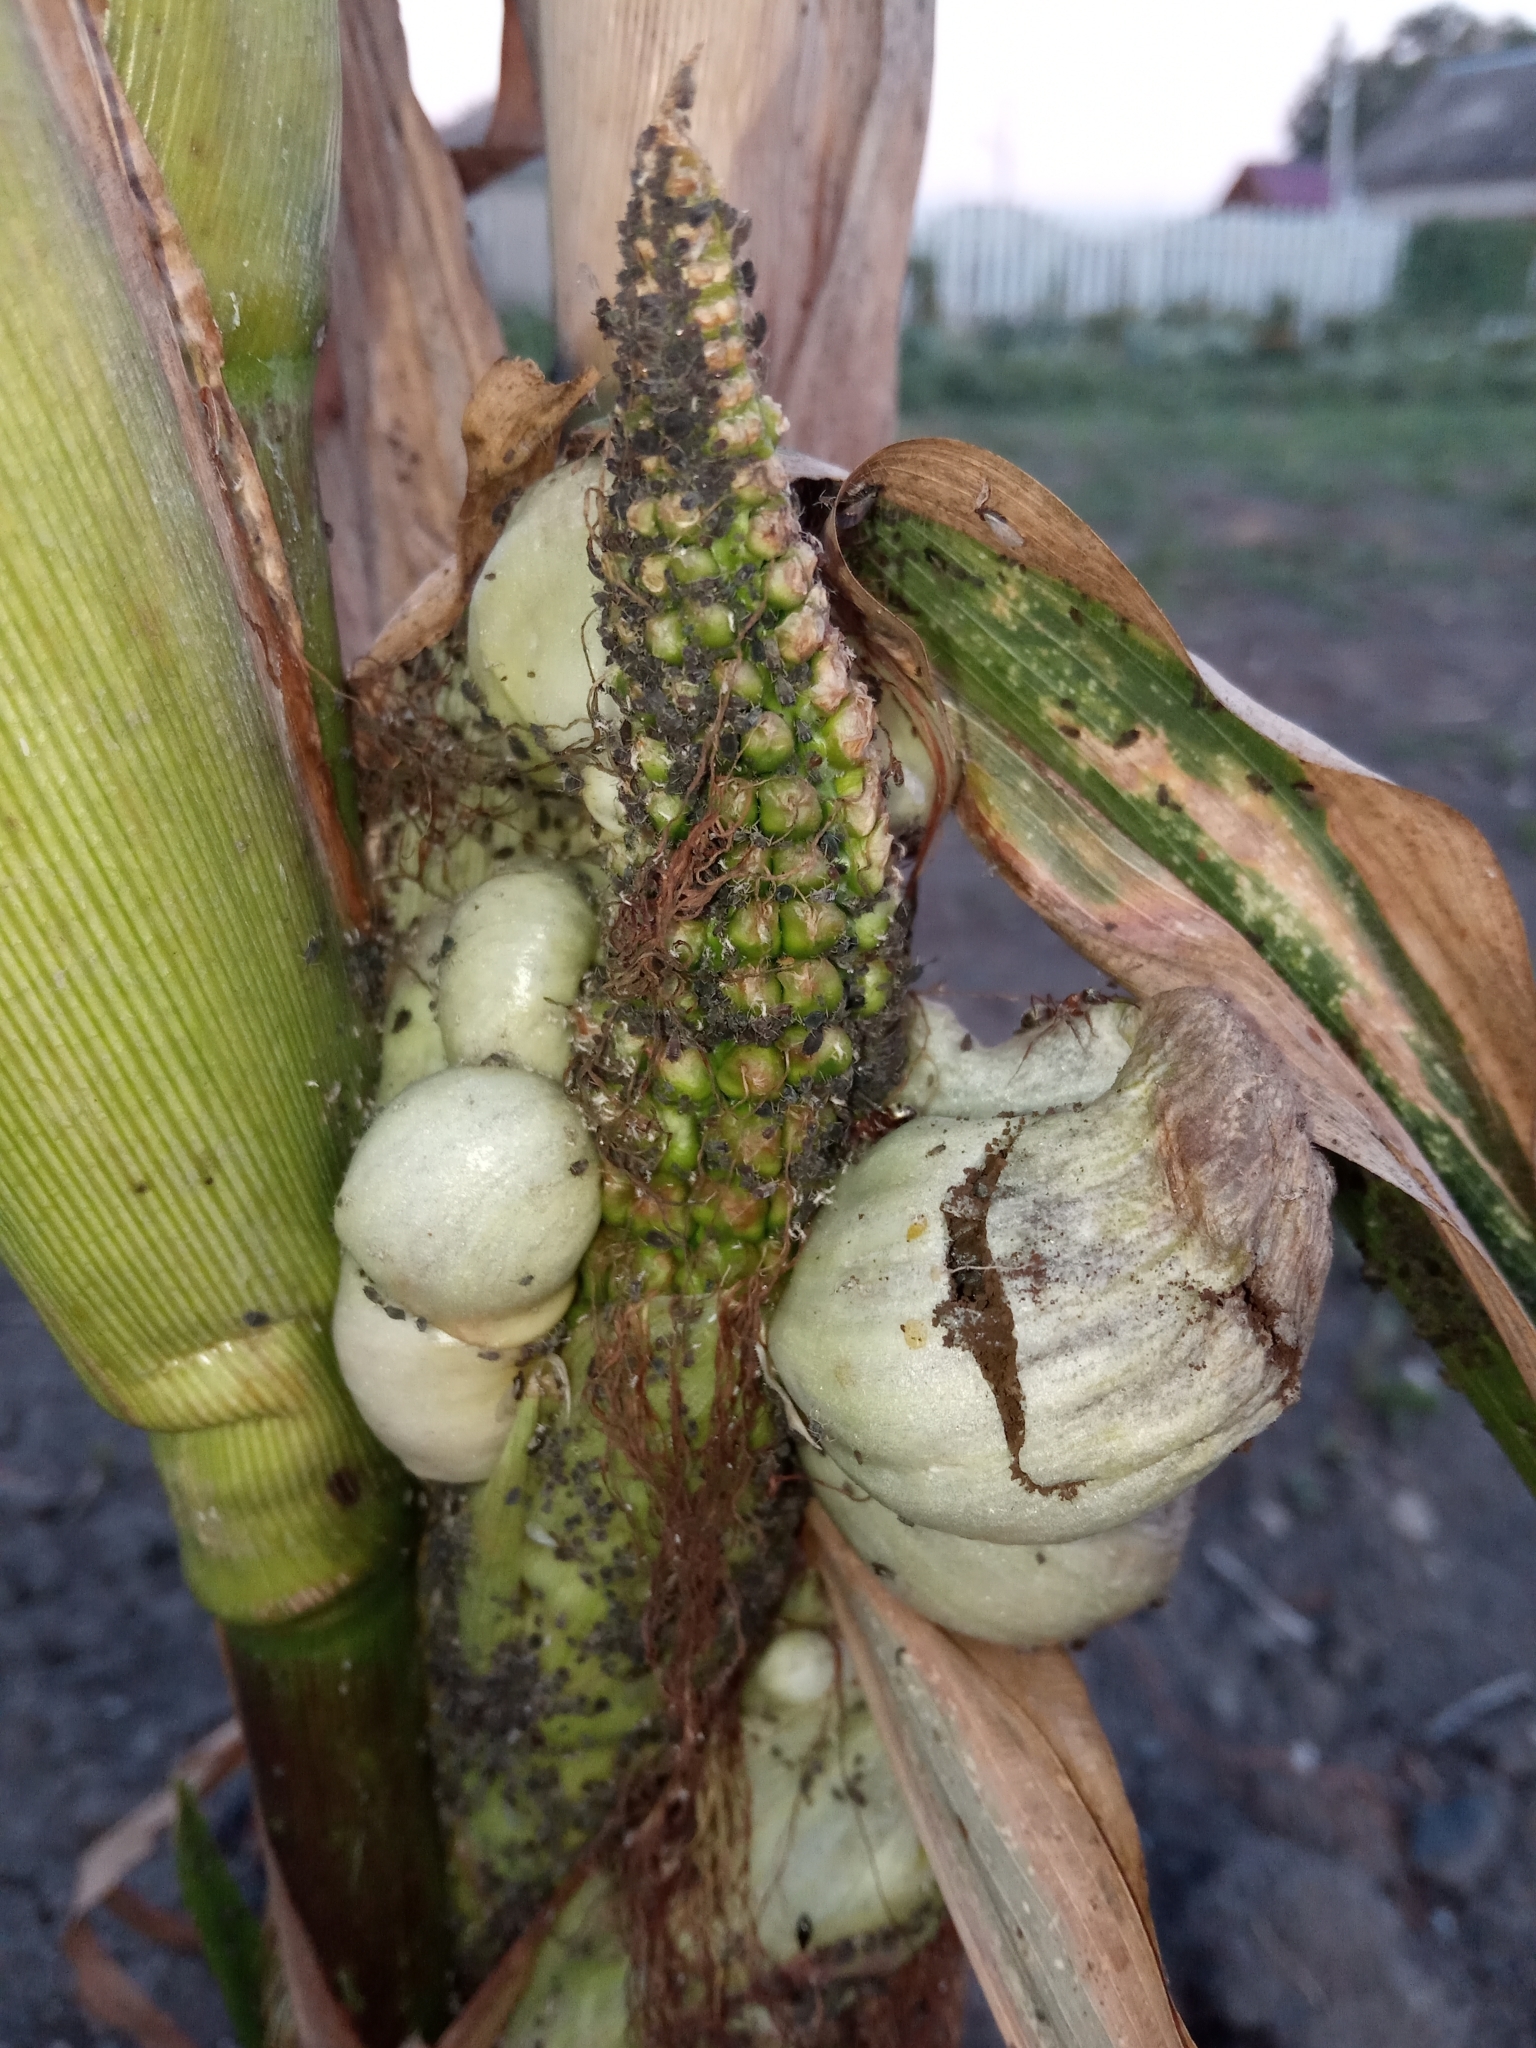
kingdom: Fungi
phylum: Basidiomycota
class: Ustilaginomycetes
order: Ustilaginales
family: Ustilaginaceae
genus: Mycosarcoma
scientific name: Mycosarcoma maydis
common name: Corn smut
